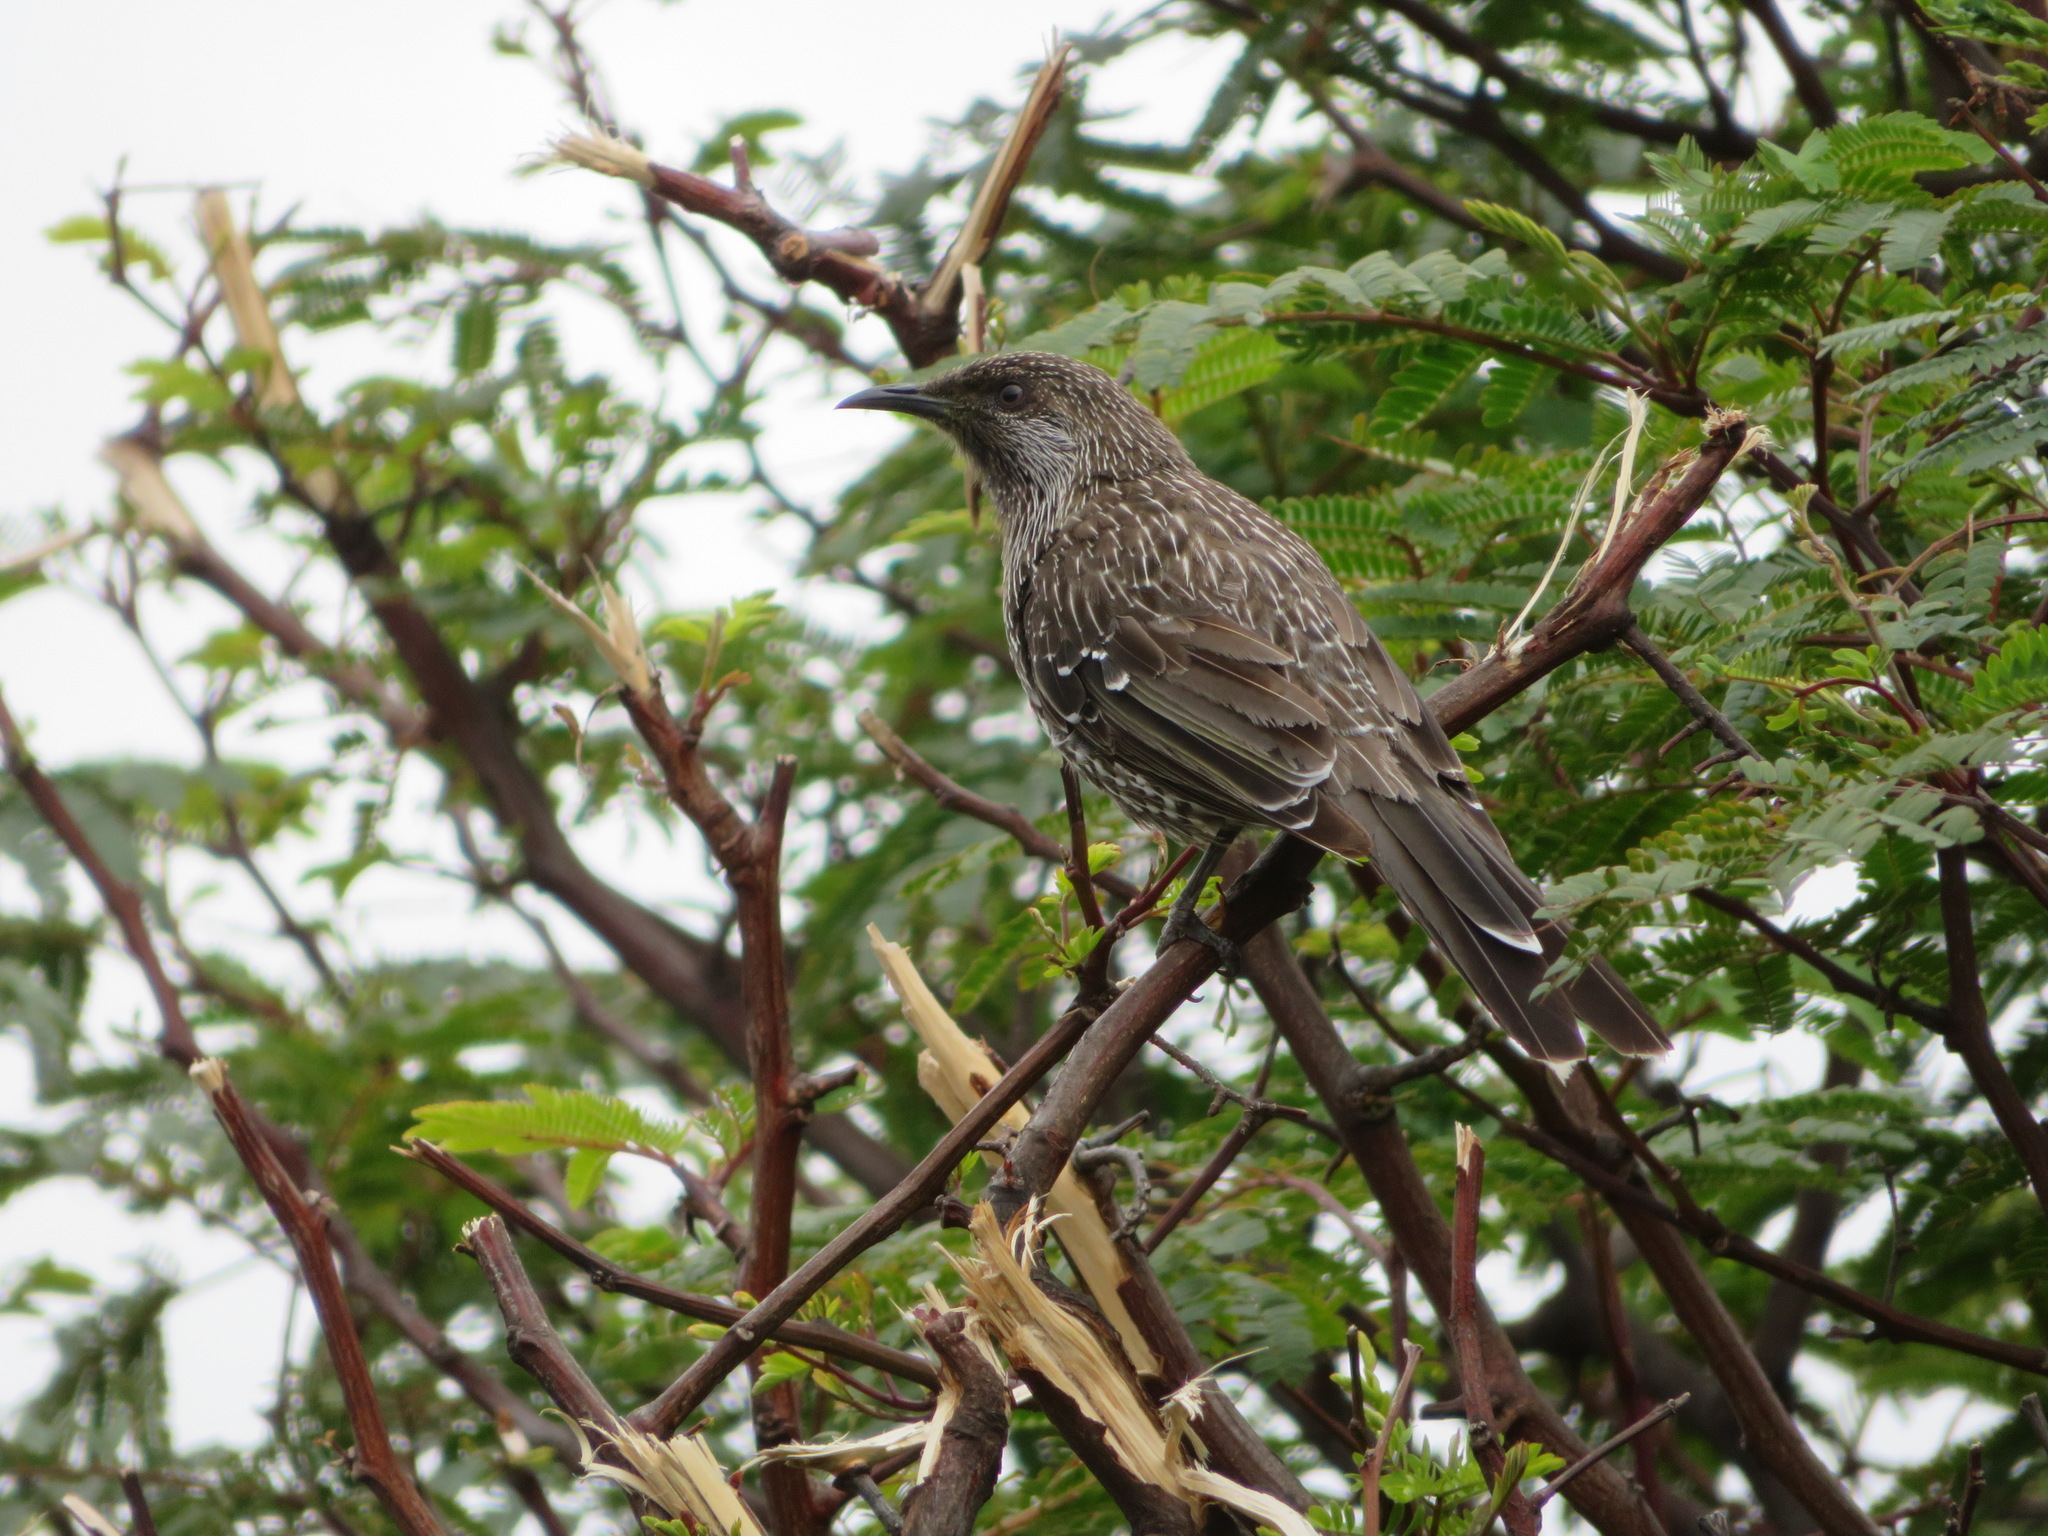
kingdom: Animalia
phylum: Chordata
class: Aves
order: Passeriformes
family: Meliphagidae
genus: Anthochaera
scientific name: Anthochaera chrysoptera
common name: Little wattlebird
